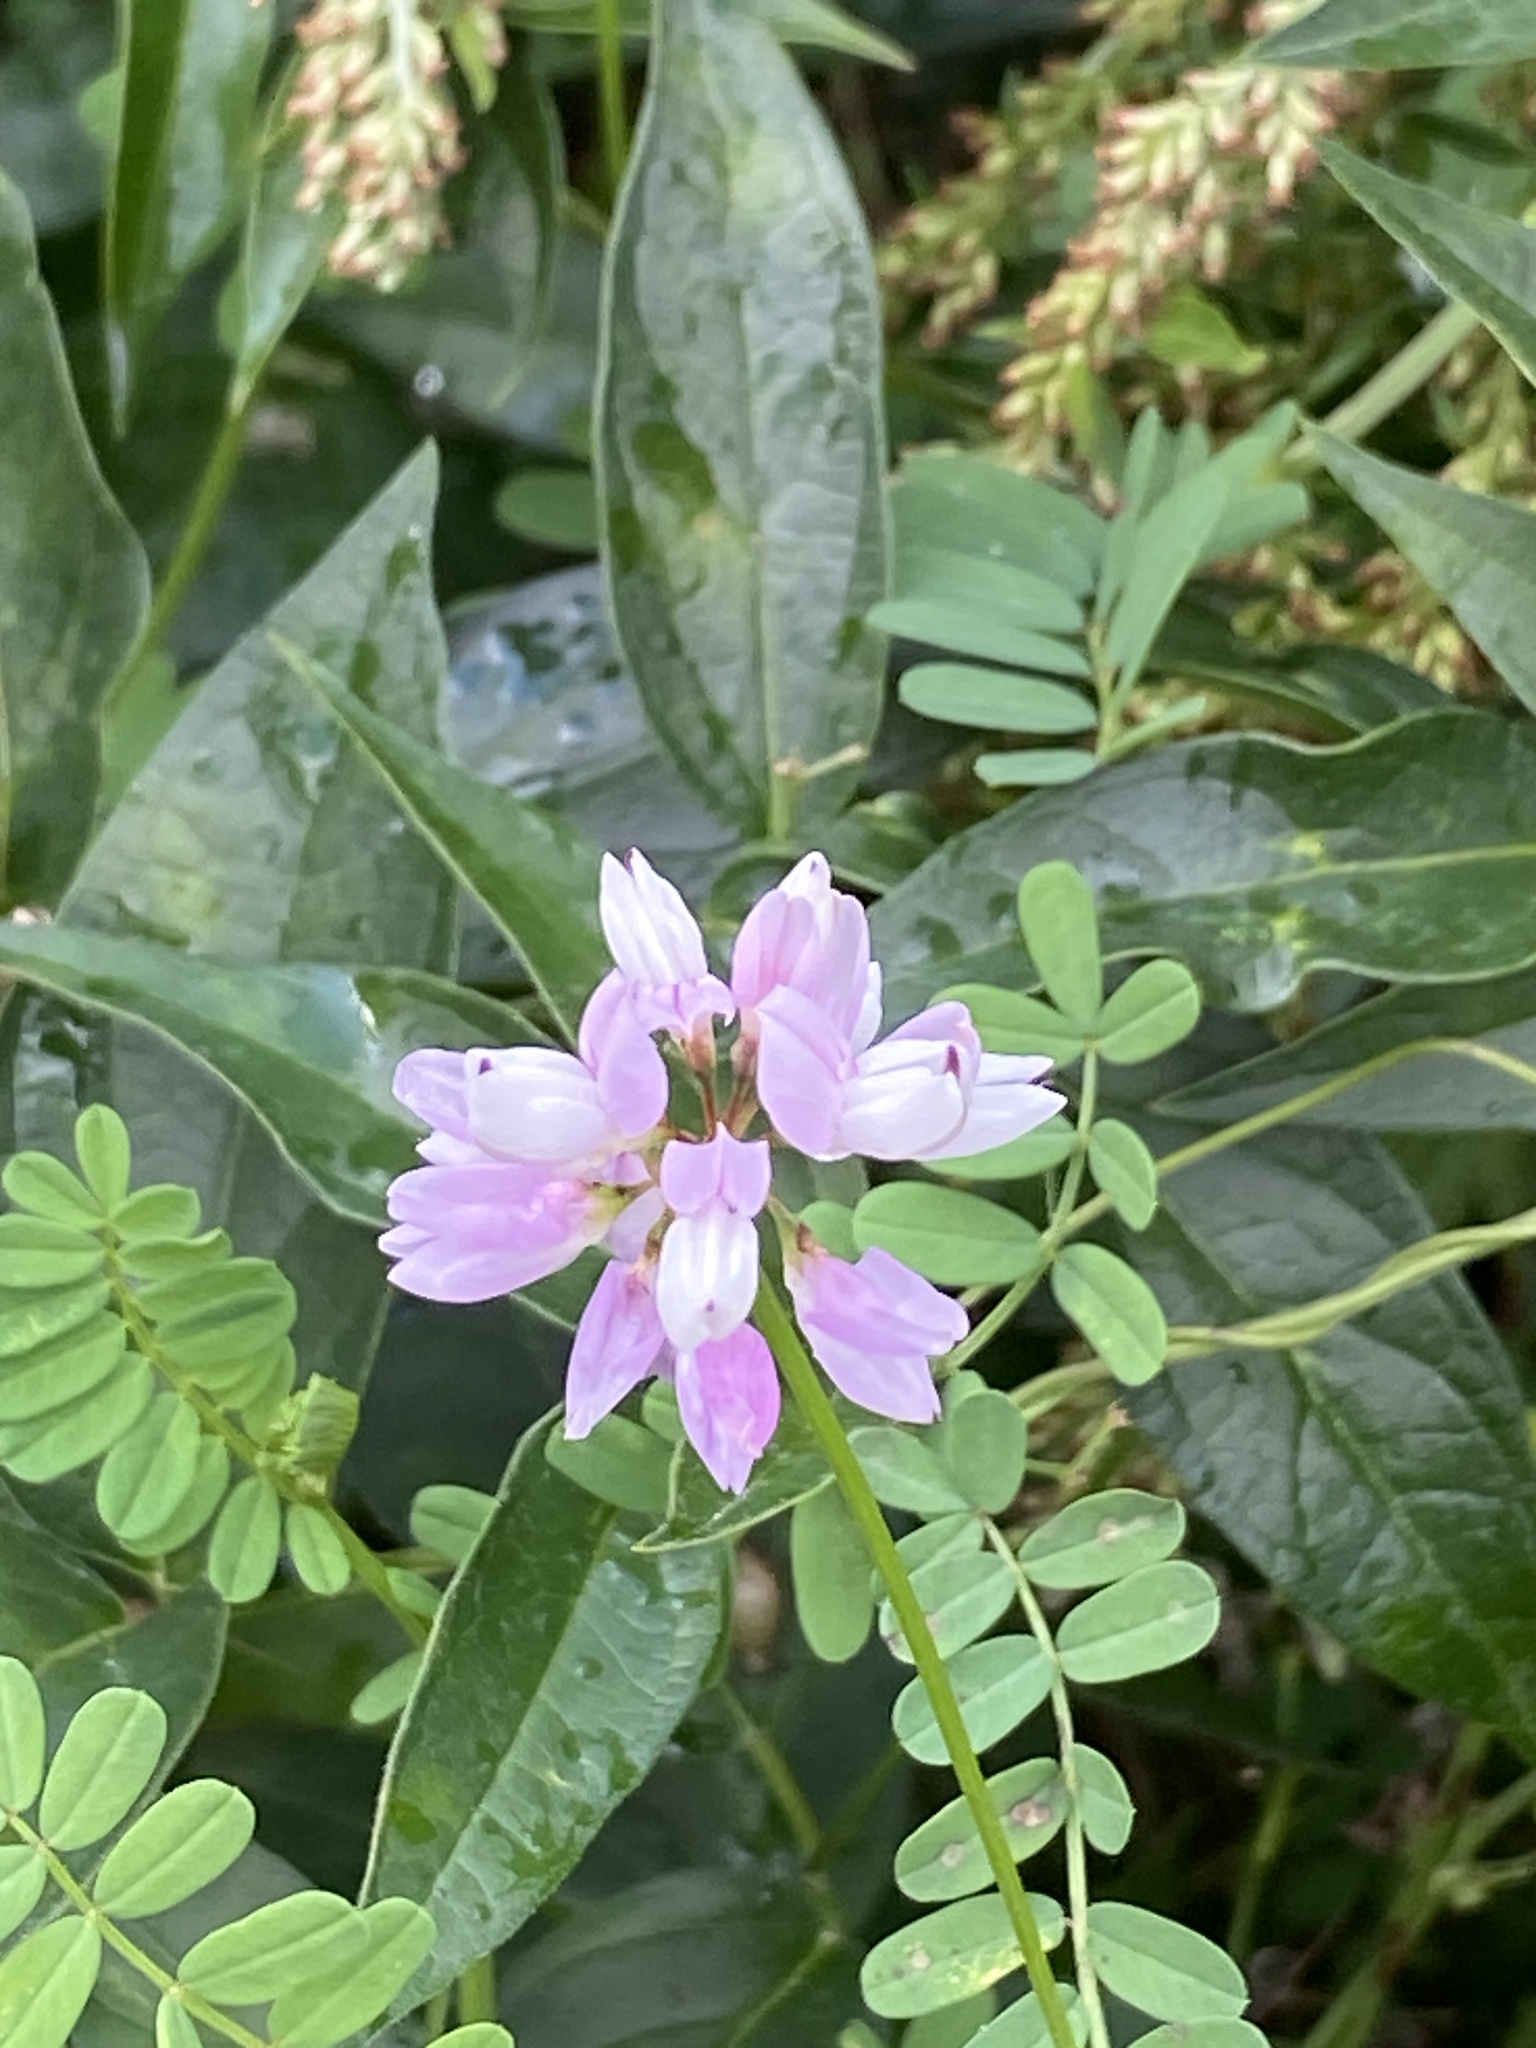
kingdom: Plantae
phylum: Tracheophyta
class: Magnoliopsida
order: Fabales
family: Fabaceae
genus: Coronilla
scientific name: Coronilla varia
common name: Crownvetch
